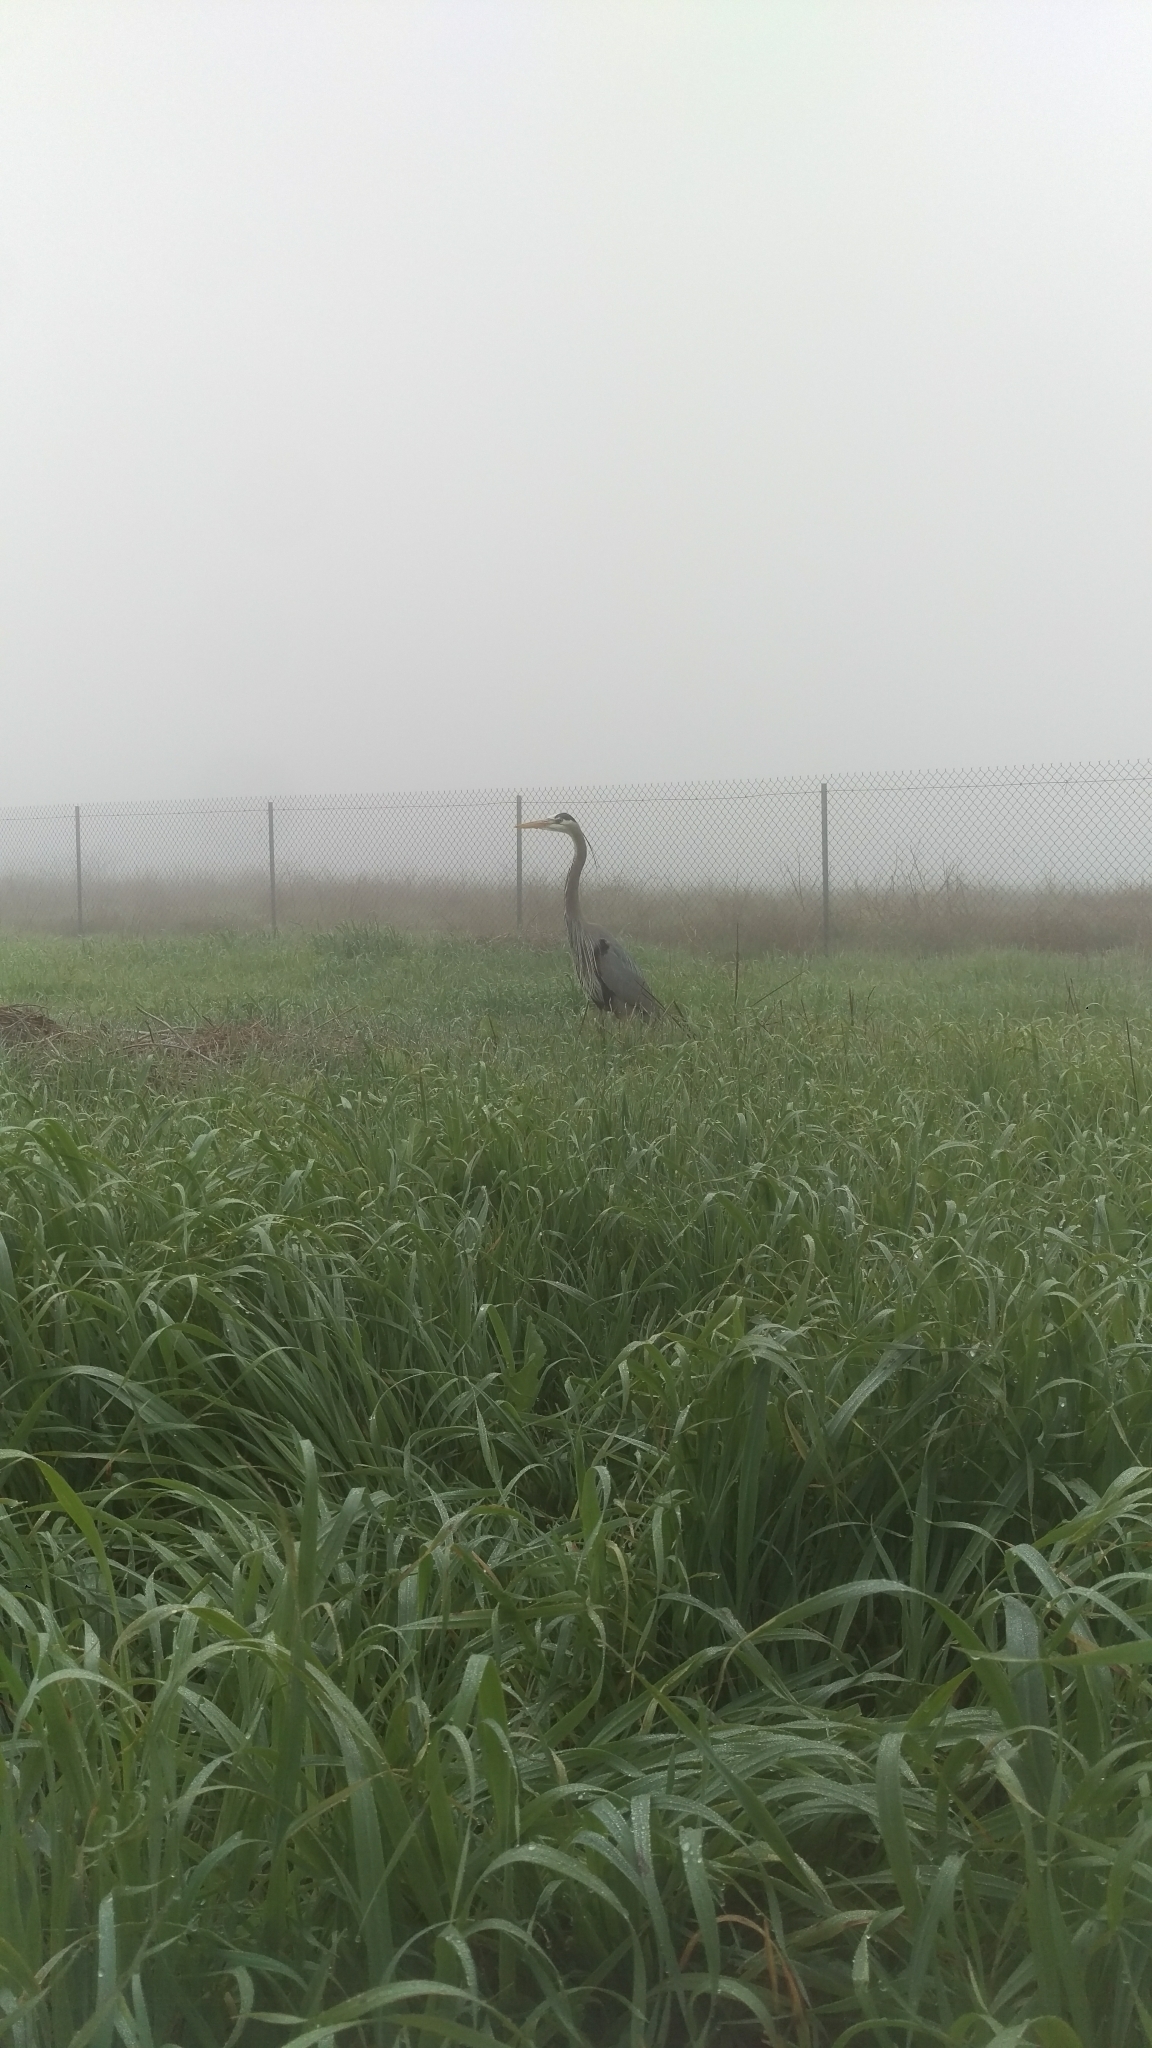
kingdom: Animalia
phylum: Chordata
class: Aves
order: Pelecaniformes
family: Ardeidae
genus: Ardea
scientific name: Ardea herodias
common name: Great blue heron
